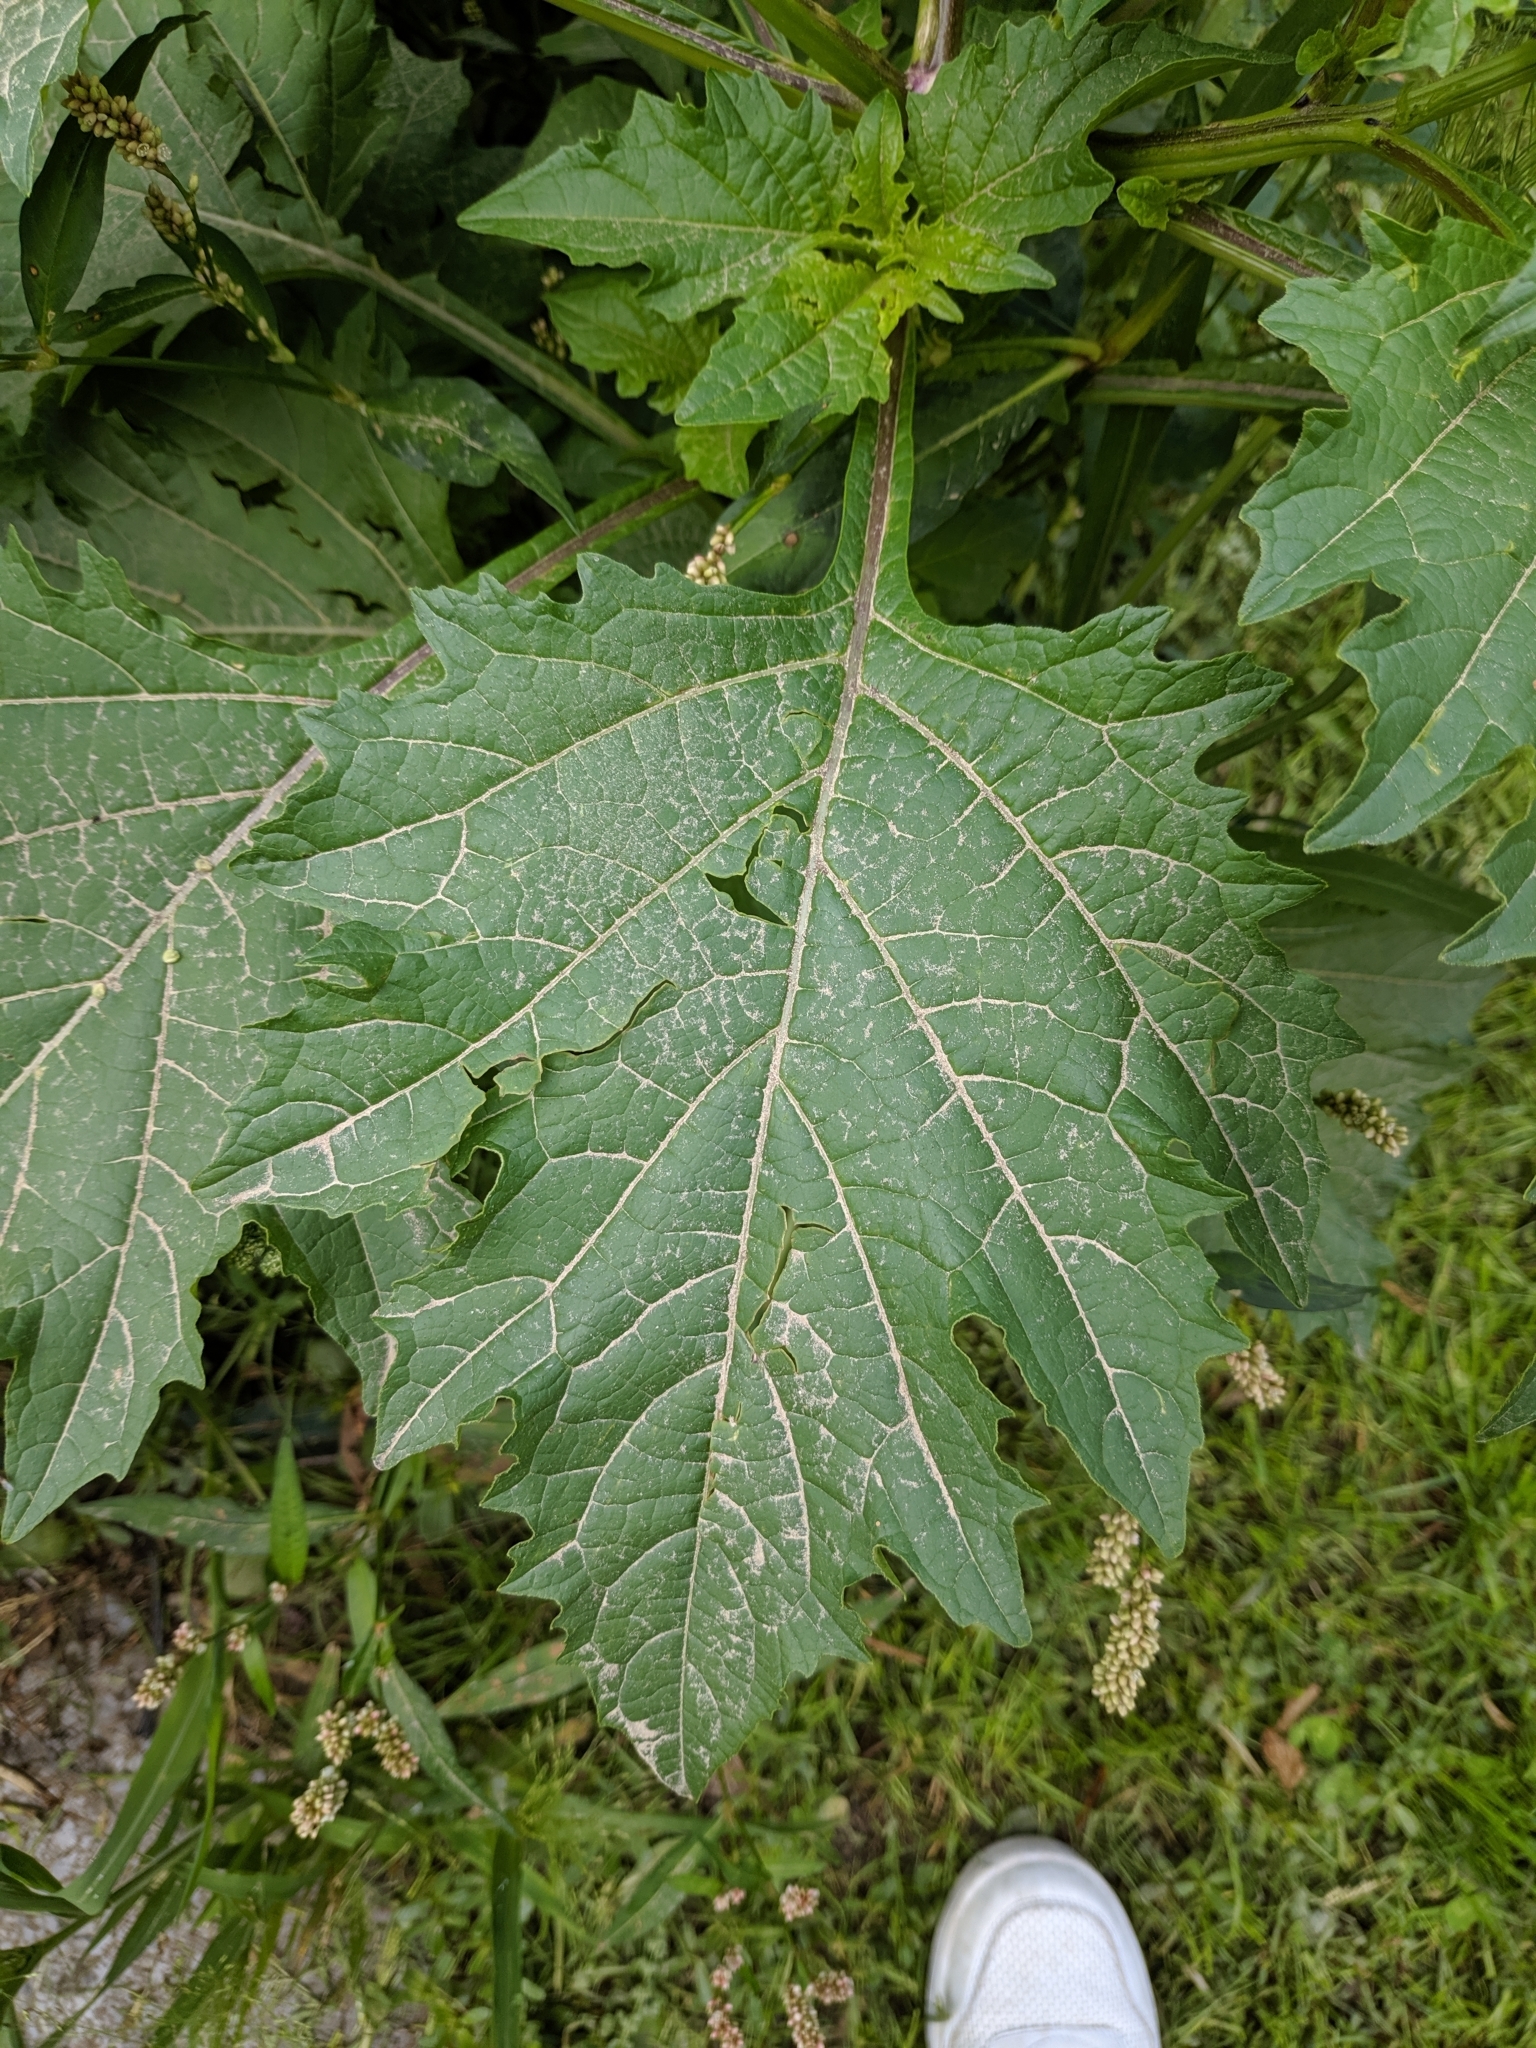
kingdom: Plantae
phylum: Tracheophyta
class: Magnoliopsida
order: Solanales
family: Solanaceae
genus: Nicandra
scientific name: Nicandra physalodes
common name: Apple-of-peru
